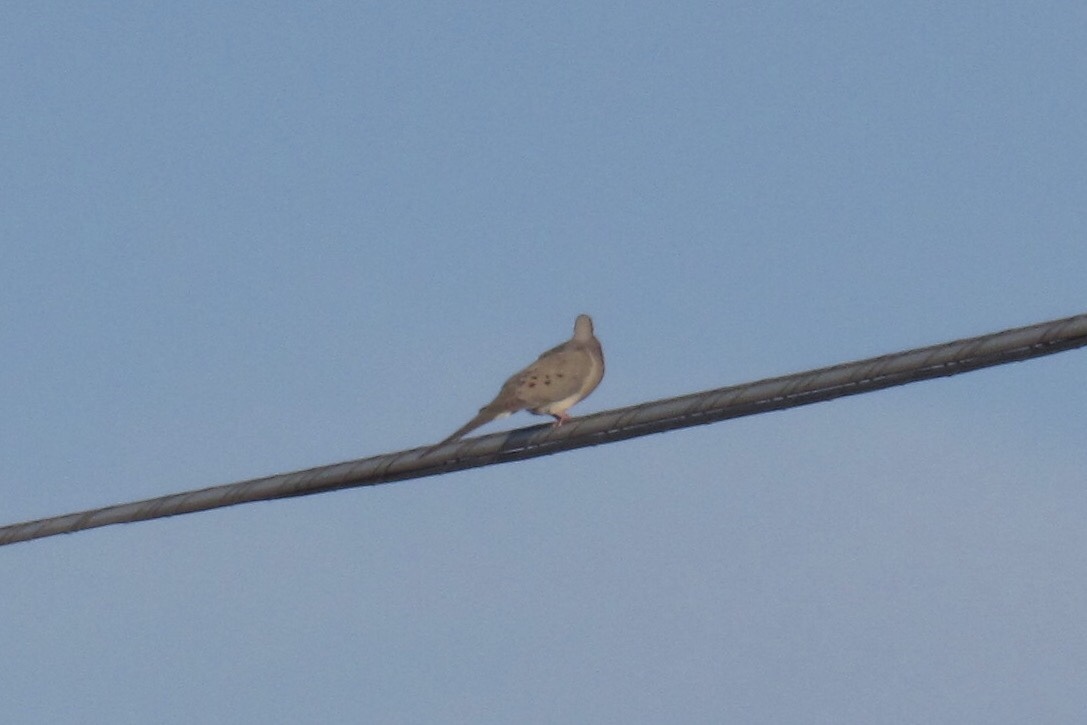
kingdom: Animalia
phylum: Chordata
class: Aves
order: Columbiformes
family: Columbidae
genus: Zenaida
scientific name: Zenaida macroura
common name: Mourning dove
